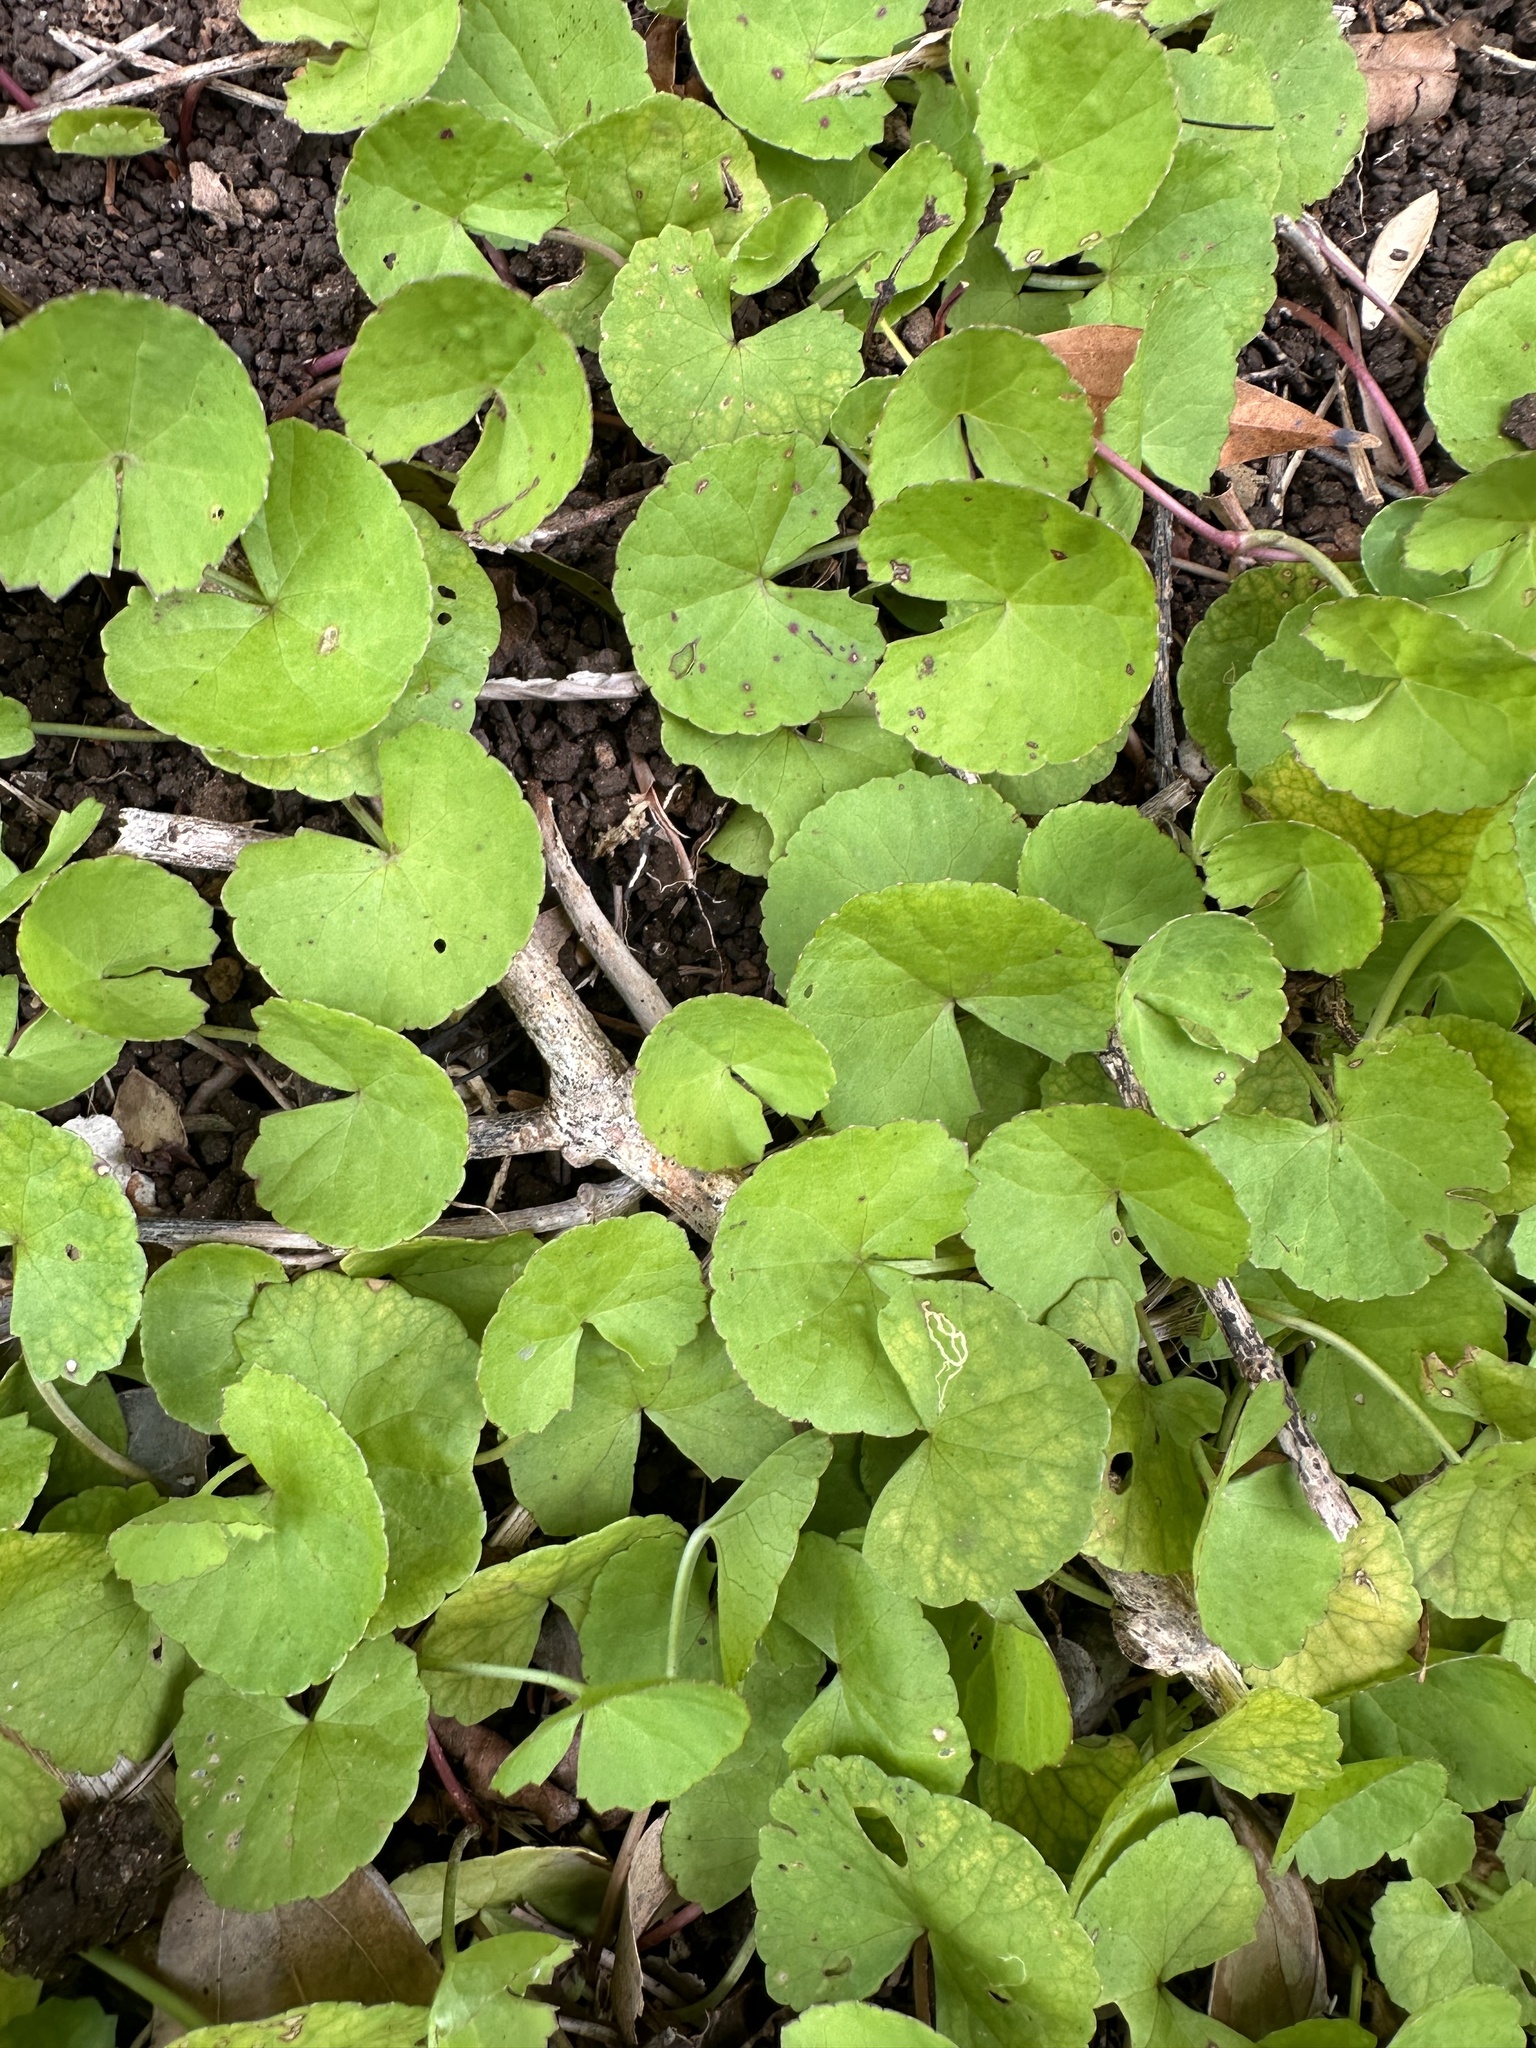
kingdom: Plantae
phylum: Tracheophyta
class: Magnoliopsida
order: Apiales
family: Apiaceae
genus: Centella
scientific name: Centella asiatica
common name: Spadeleaf
